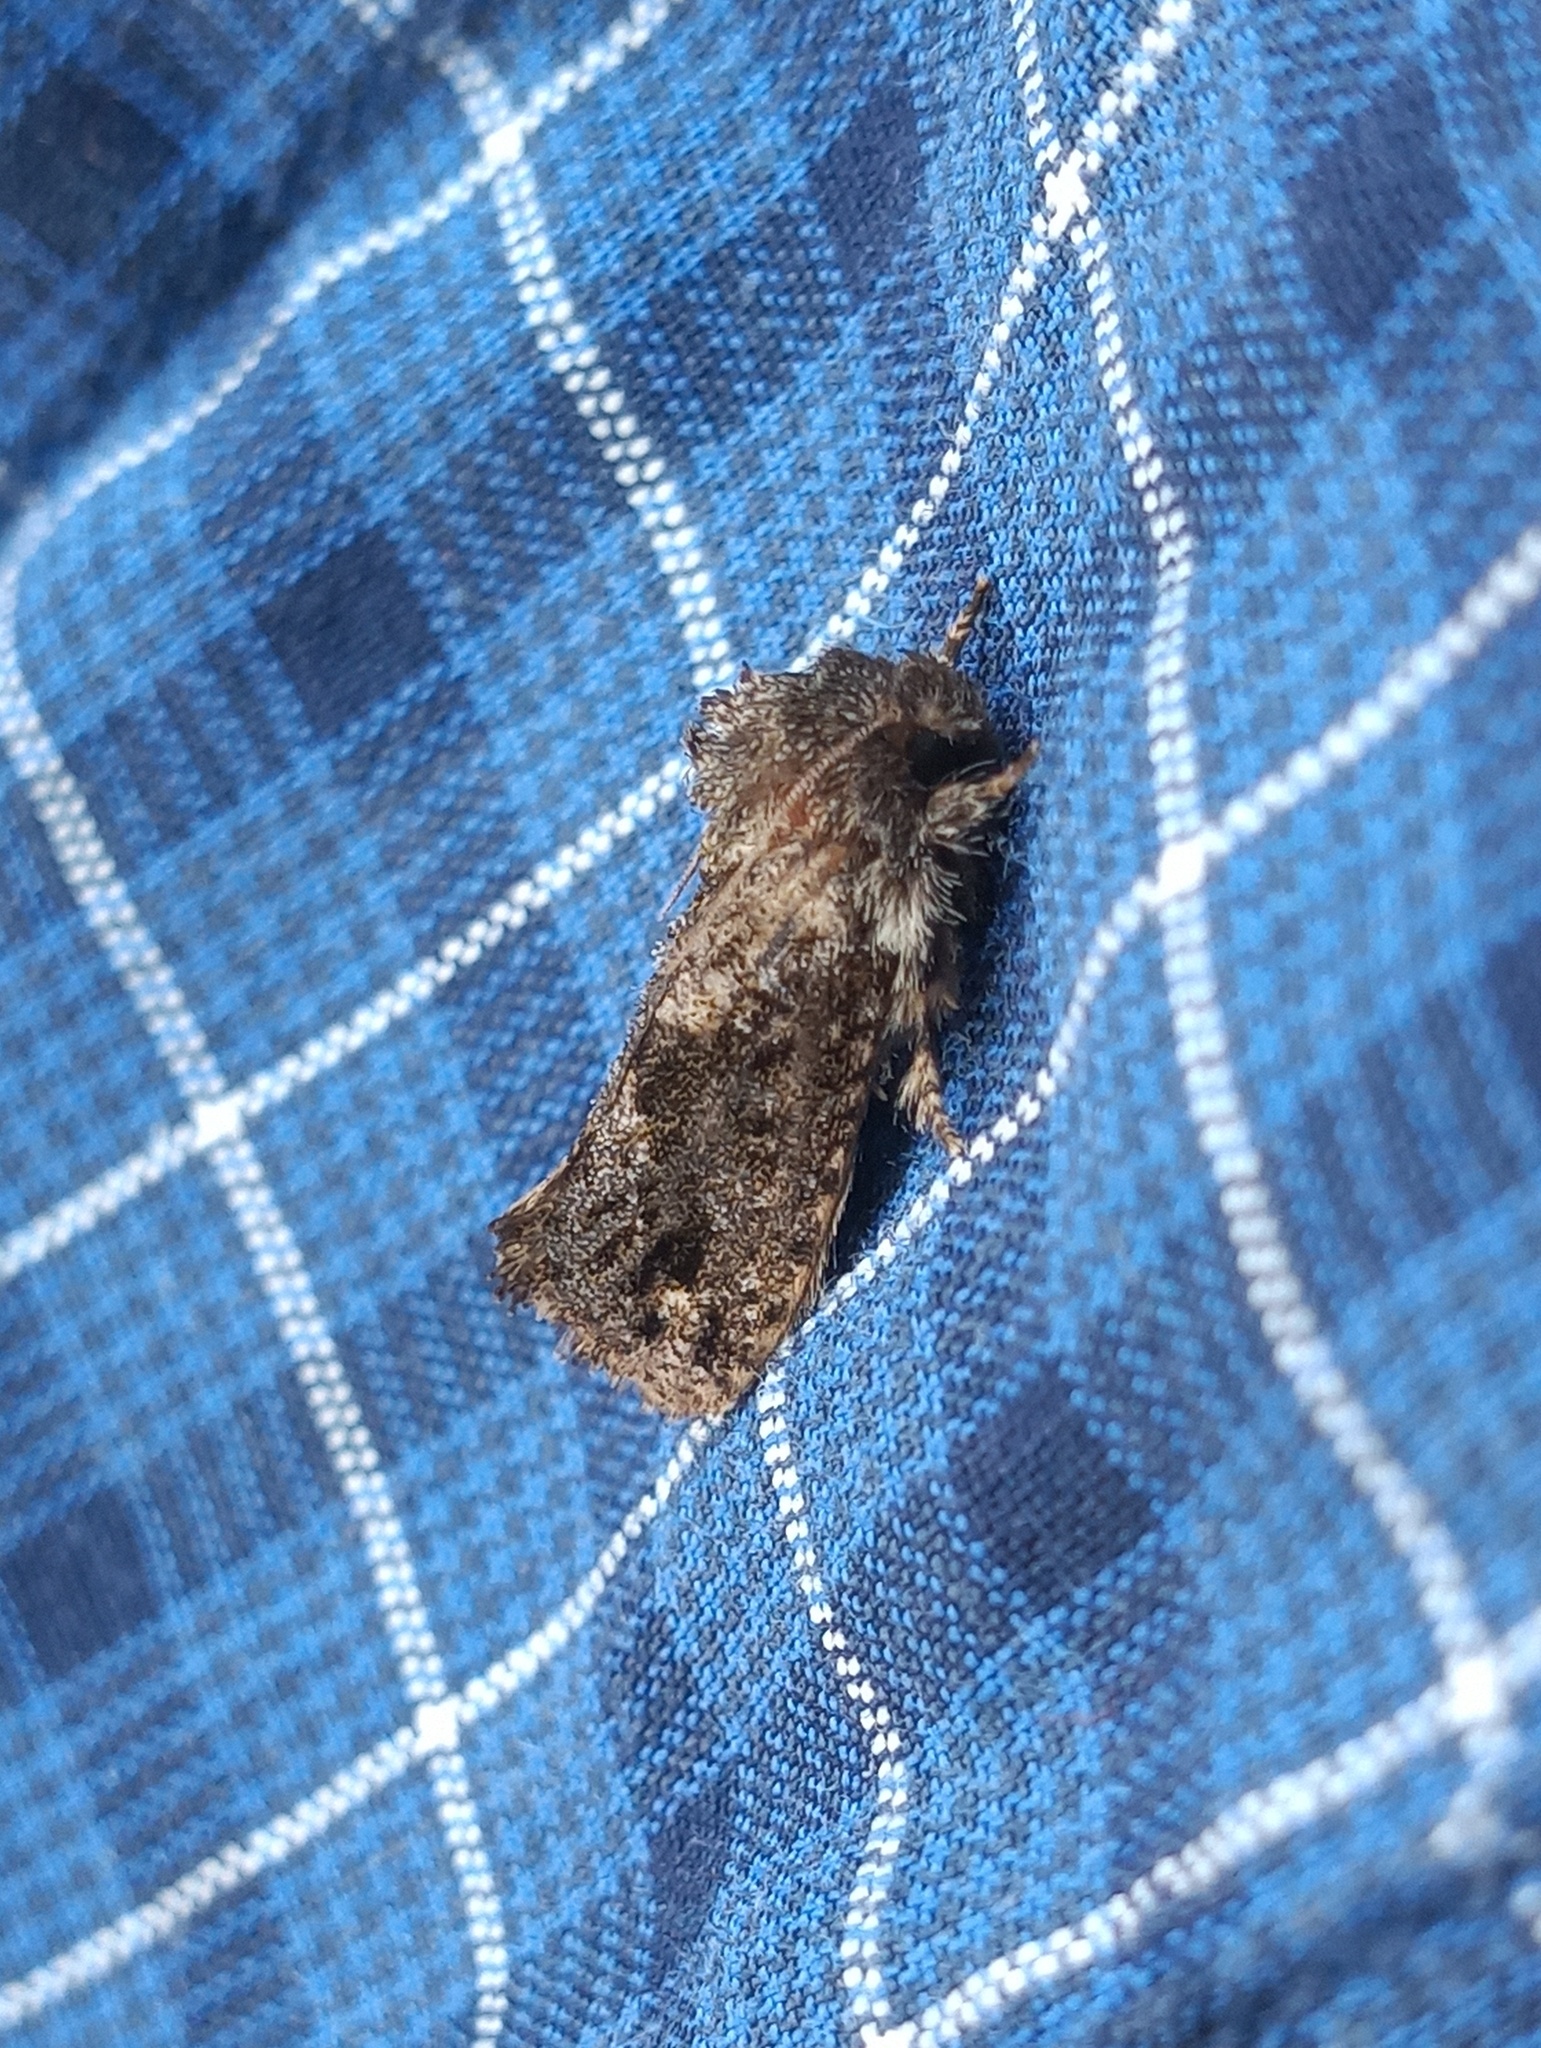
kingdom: Animalia
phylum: Arthropoda
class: Insecta
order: Lepidoptera
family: Tineidae
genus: Acrolophus
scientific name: Acrolophus arcanella
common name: Arcane grass tubeworm moth
